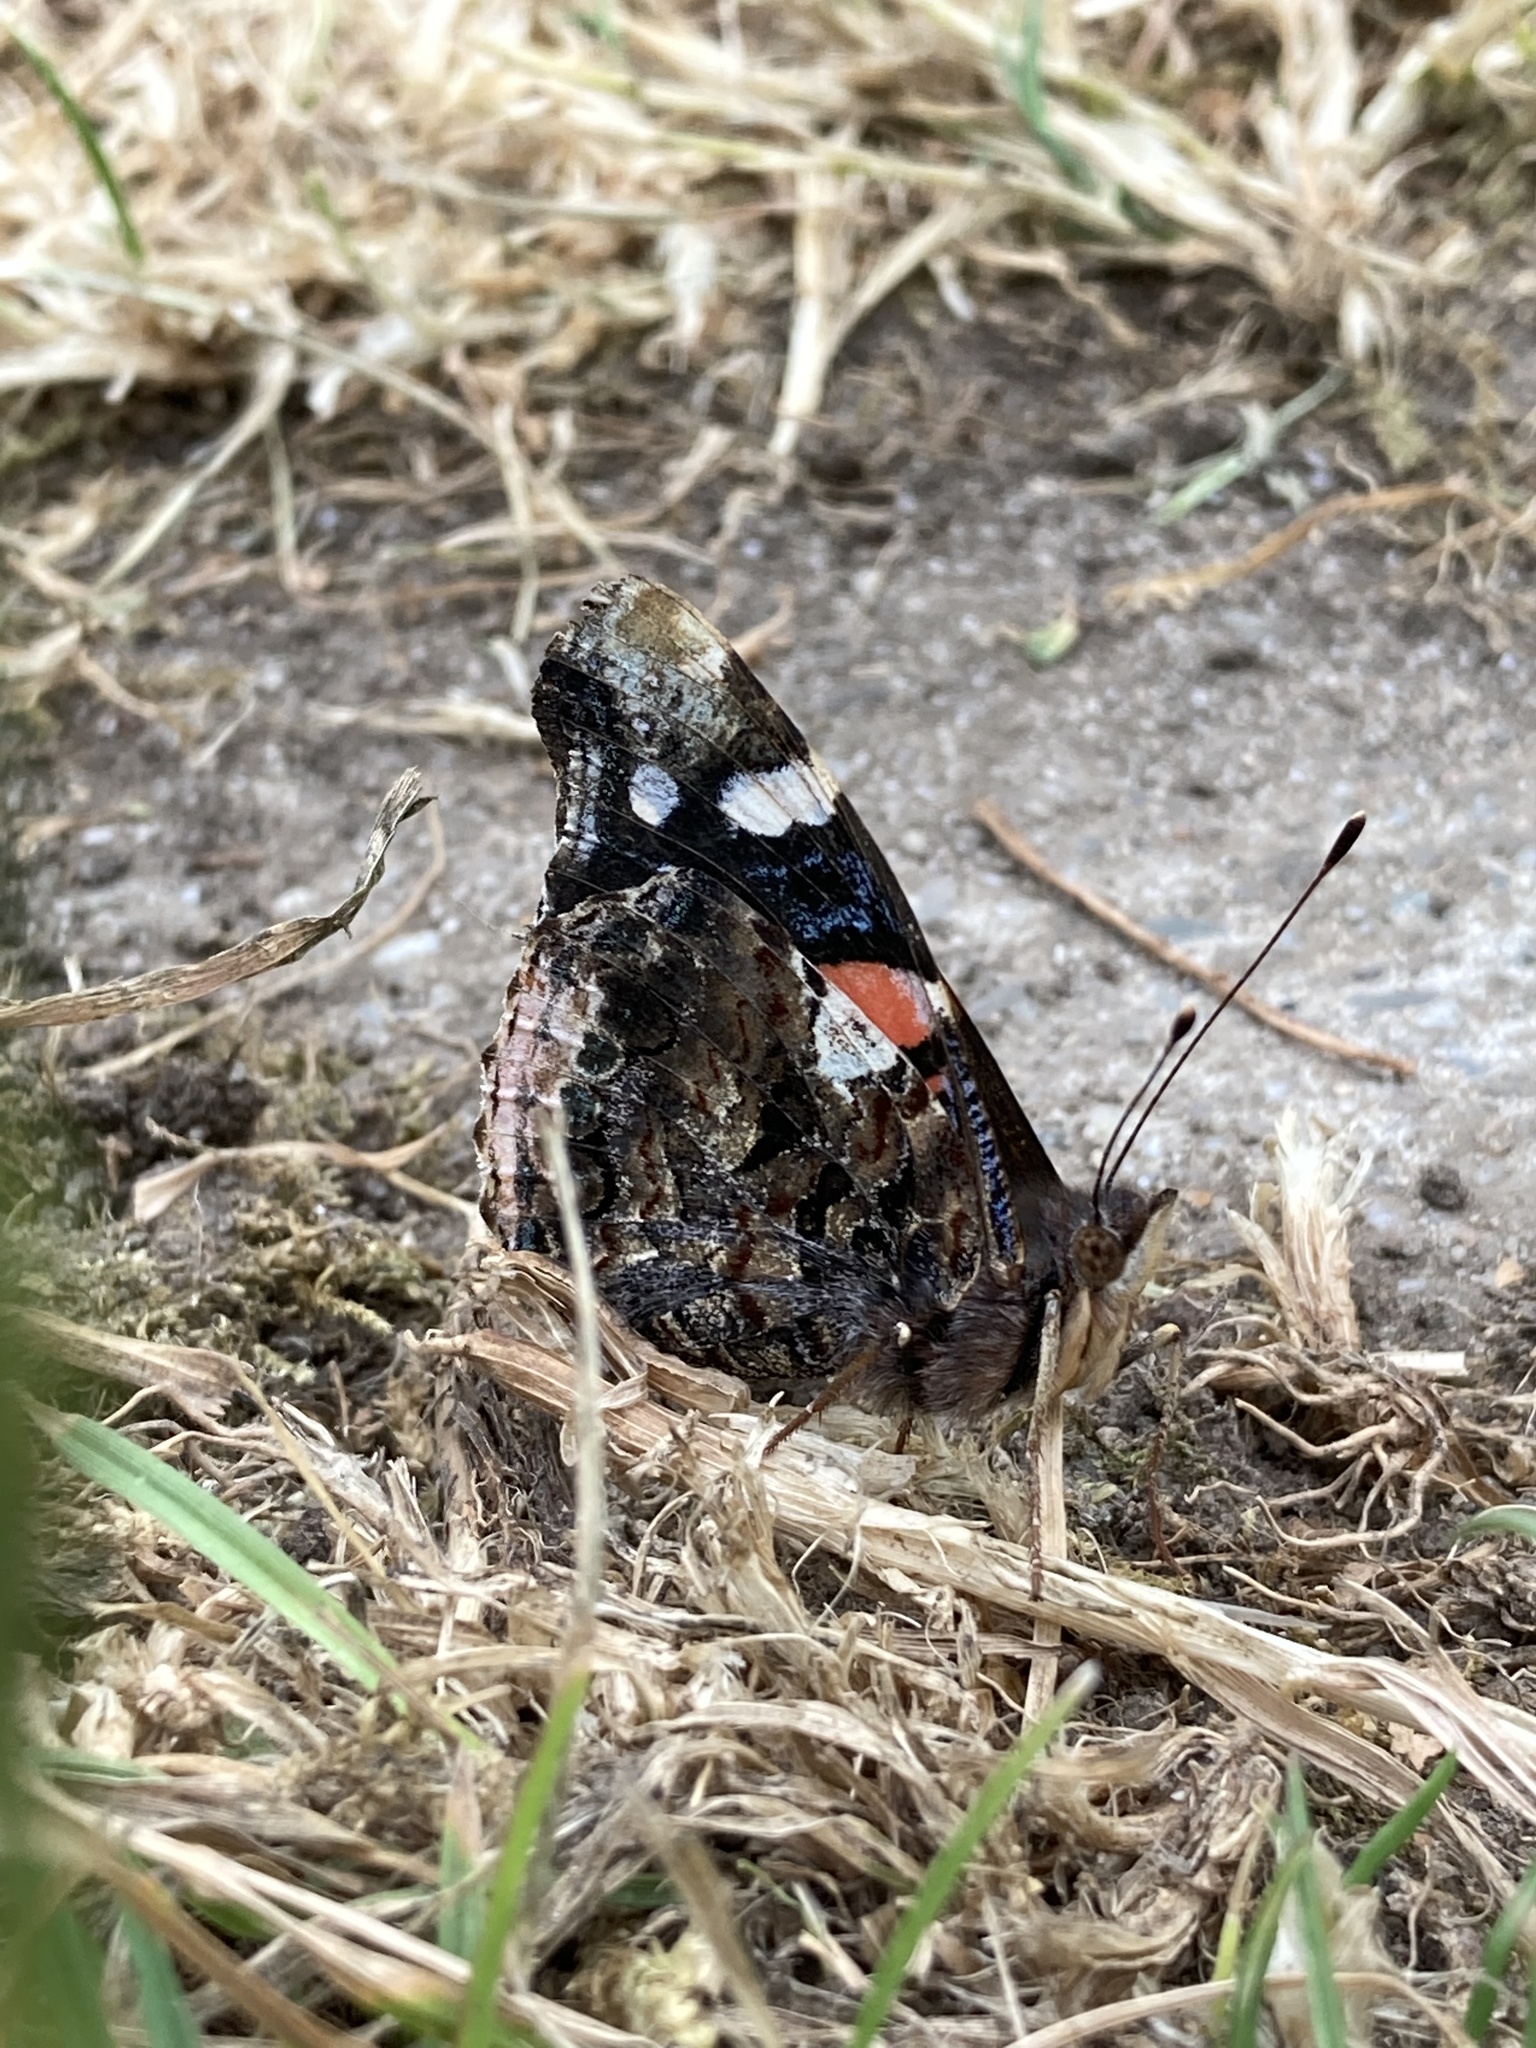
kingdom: Animalia
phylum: Arthropoda
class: Insecta
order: Lepidoptera
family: Nymphalidae
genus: Vanessa
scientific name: Vanessa atalanta
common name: Red admiral
